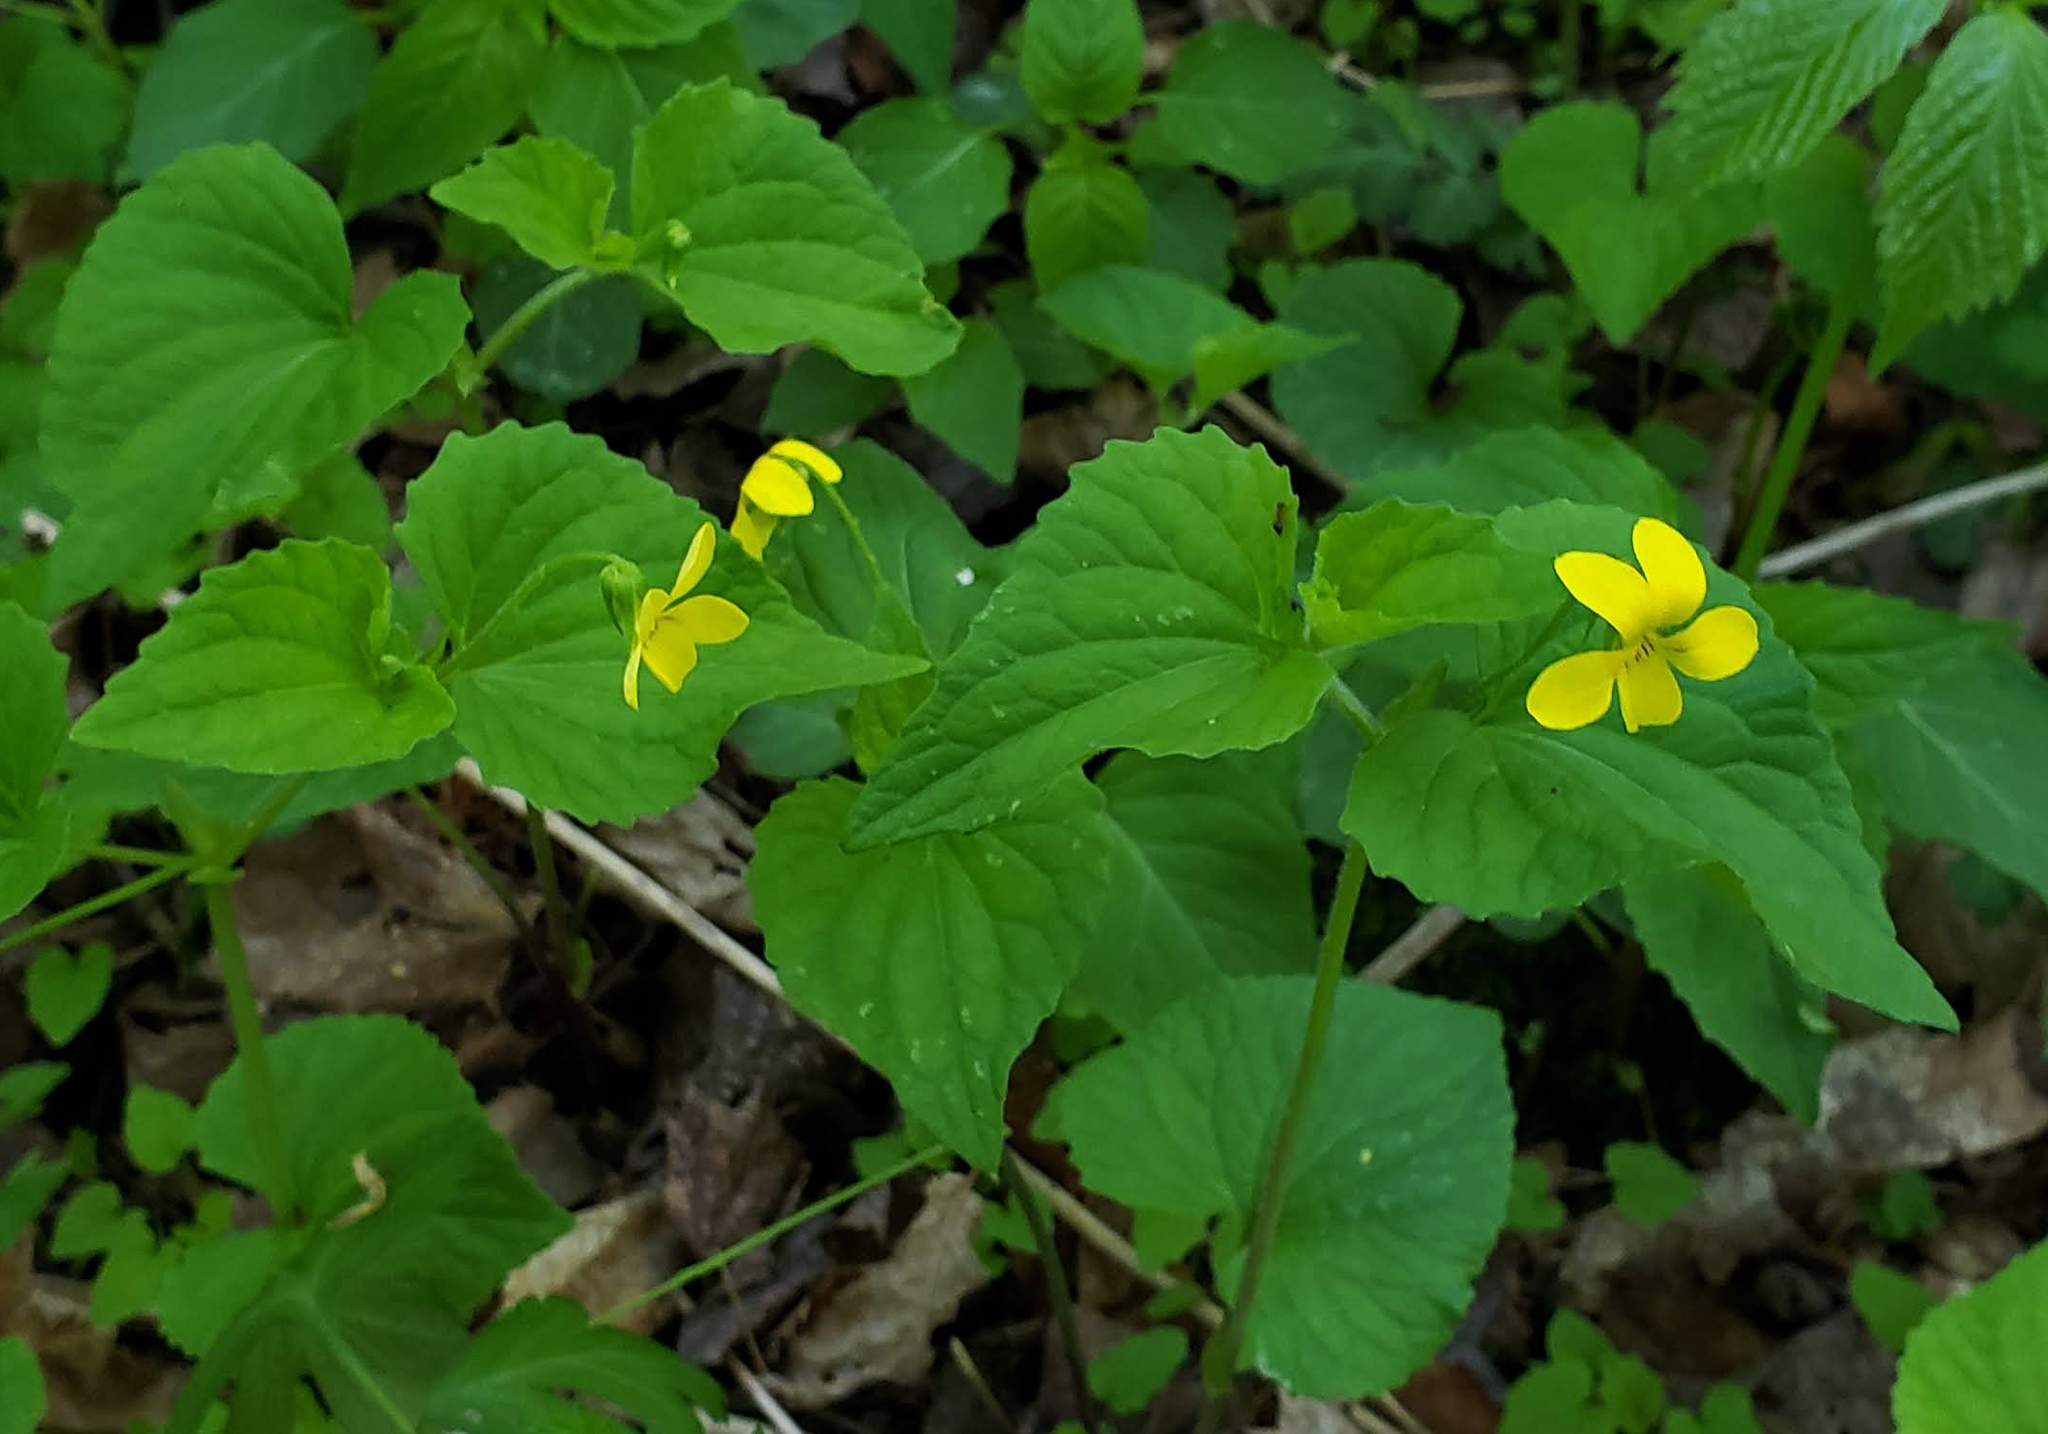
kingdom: Plantae
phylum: Tracheophyta
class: Magnoliopsida
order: Malpighiales
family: Violaceae
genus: Viola
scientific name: Viola eriocarpa
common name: Smooth yellow violet
